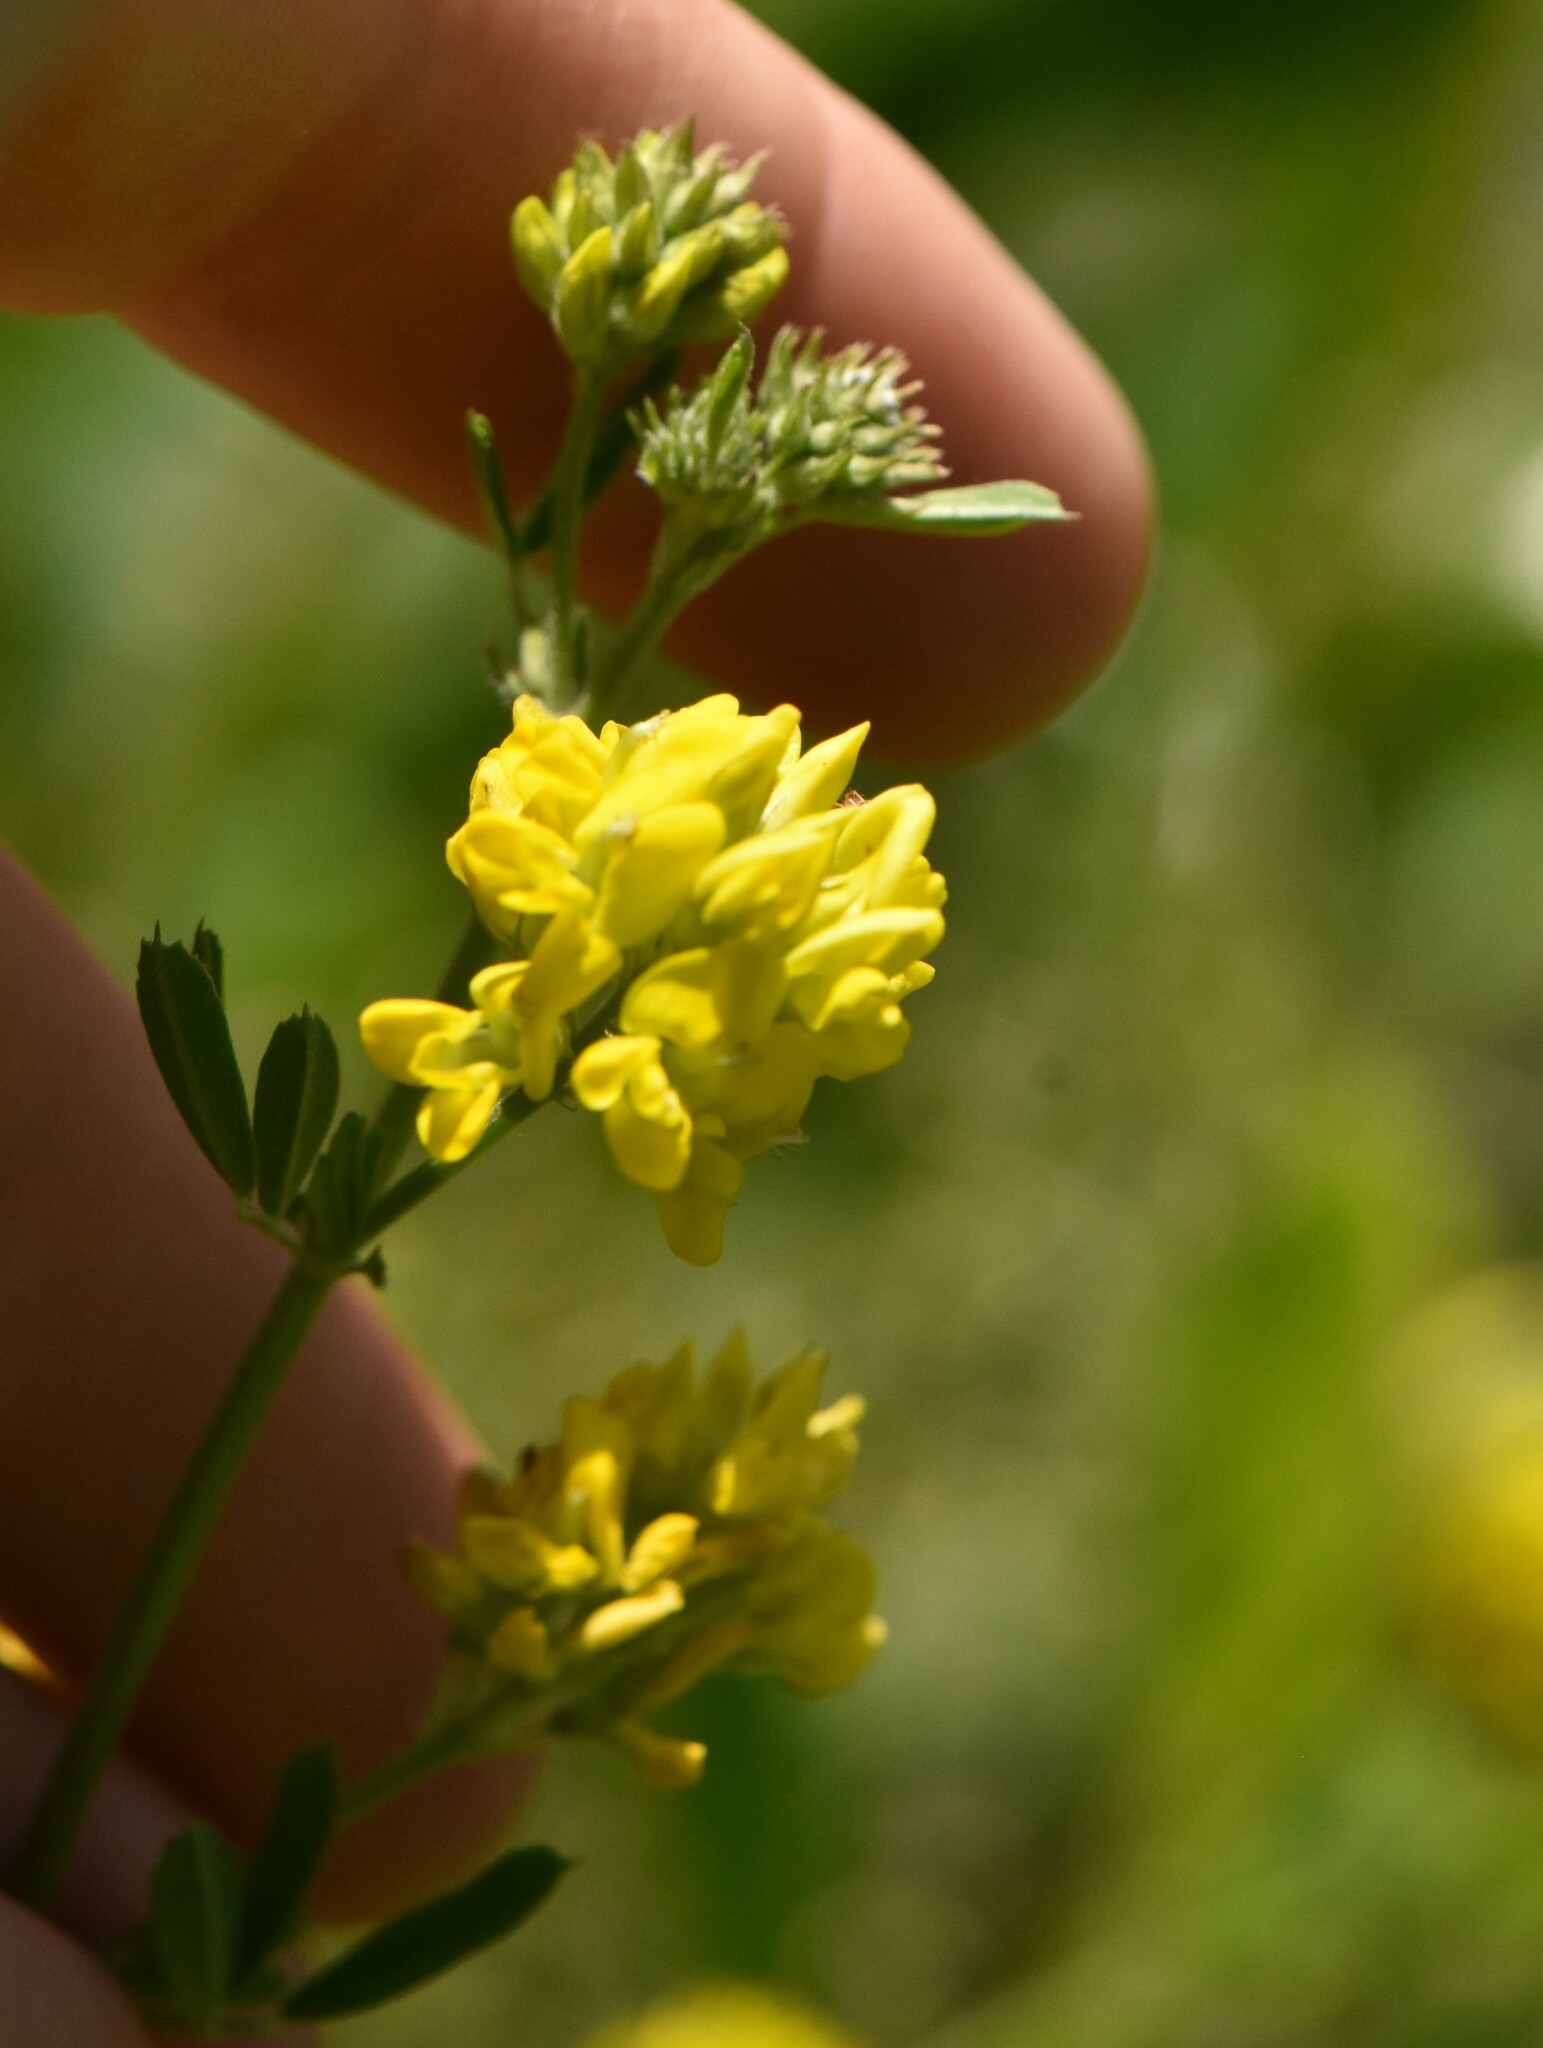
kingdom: Plantae
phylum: Tracheophyta
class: Magnoliopsida
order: Fabales
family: Fabaceae
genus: Medicago
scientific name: Medicago falcata
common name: Sickle medick
